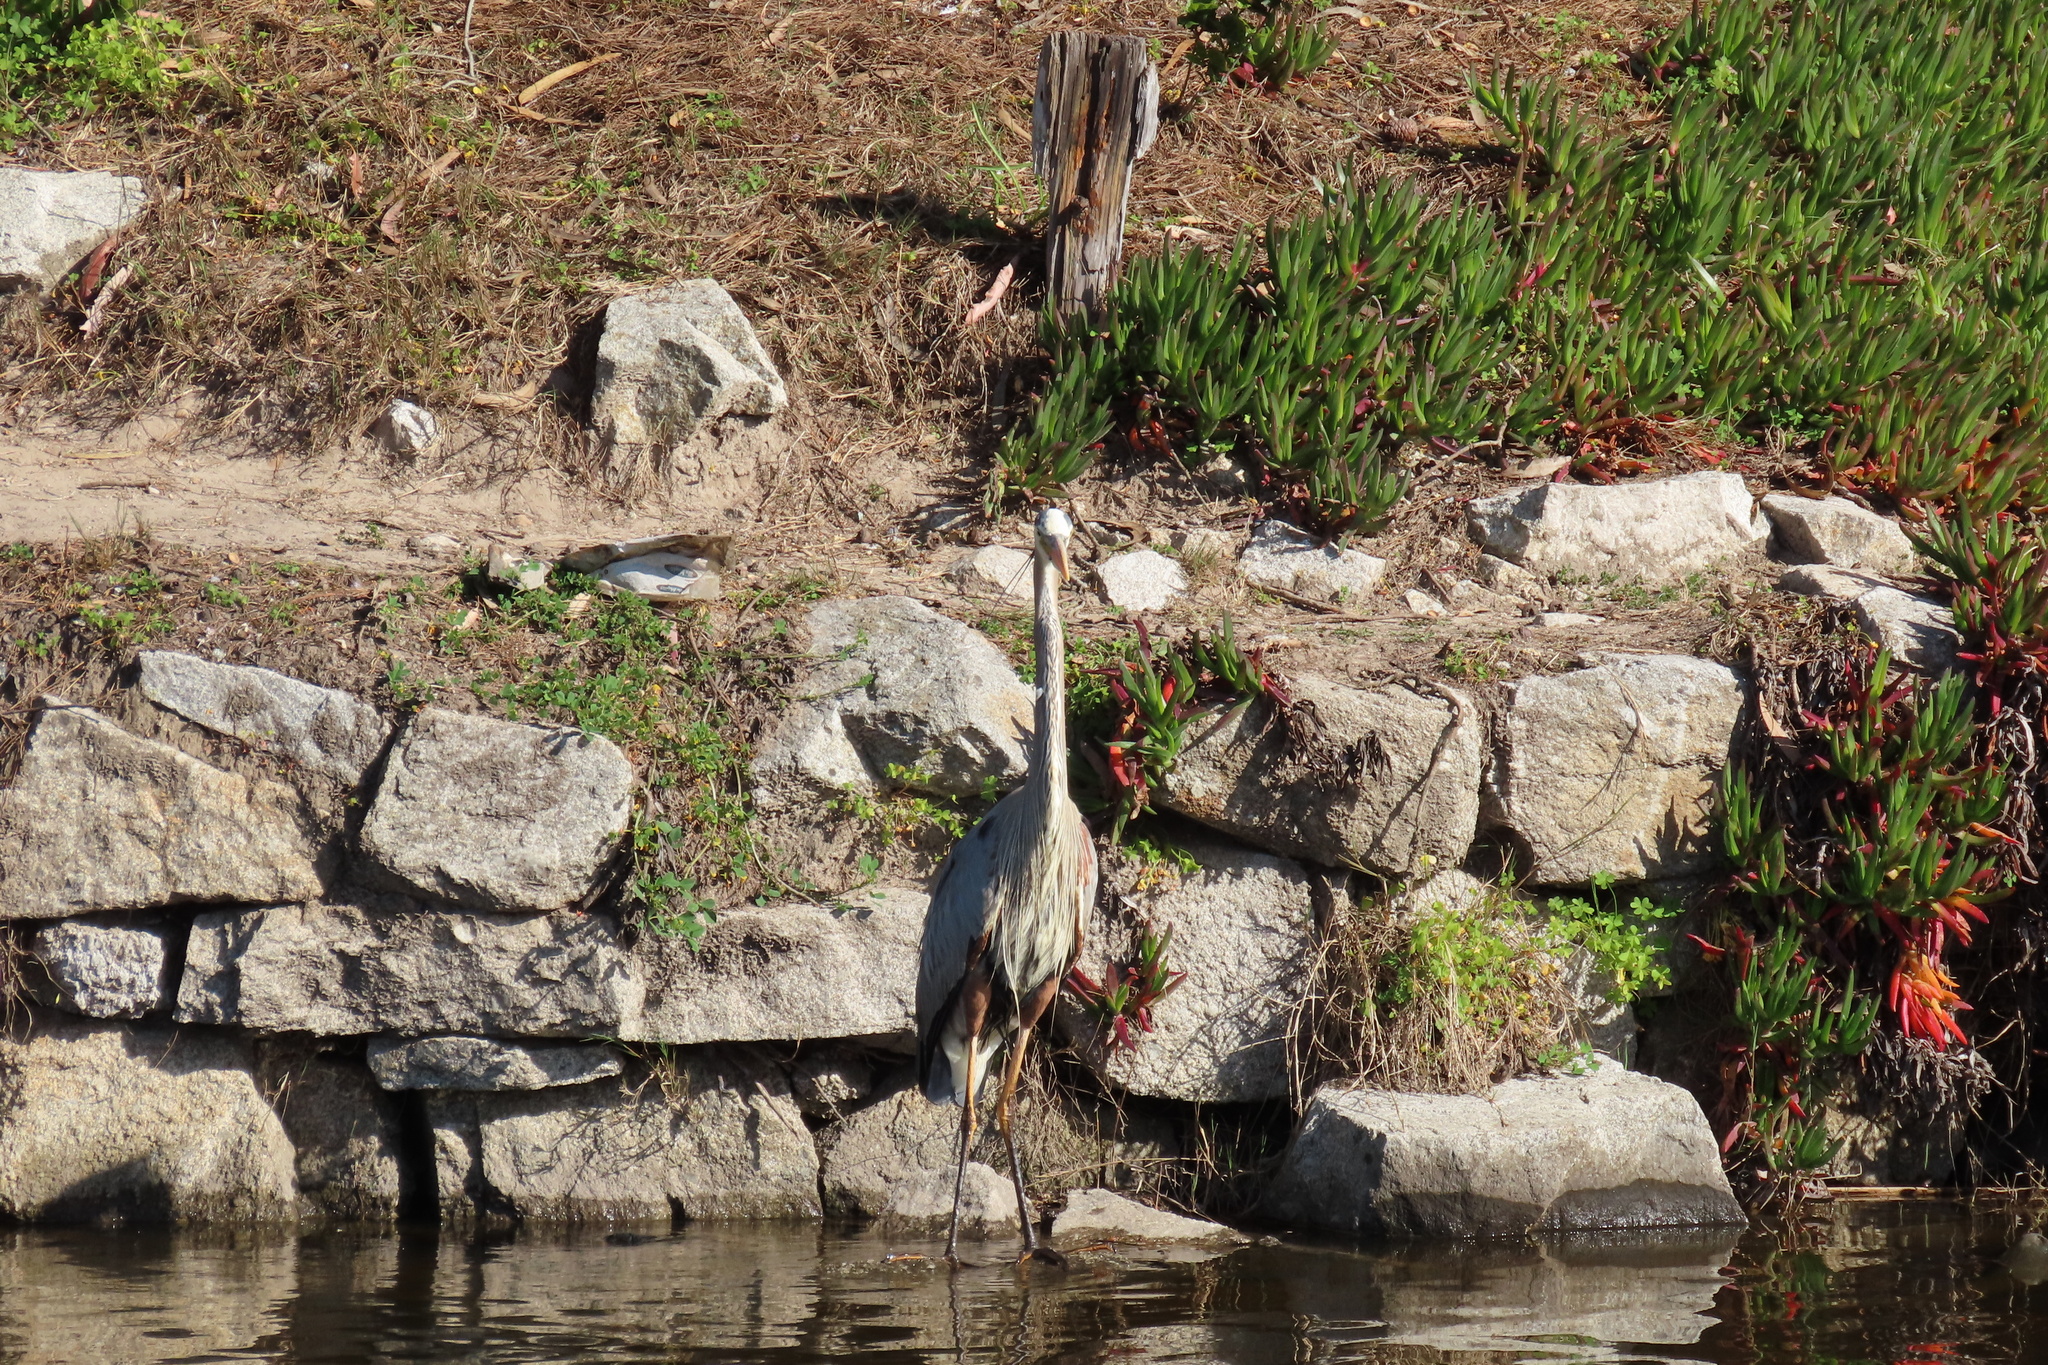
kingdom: Animalia
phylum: Chordata
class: Aves
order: Pelecaniformes
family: Ardeidae
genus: Ardea
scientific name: Ardea herodias
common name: Great blue heron
